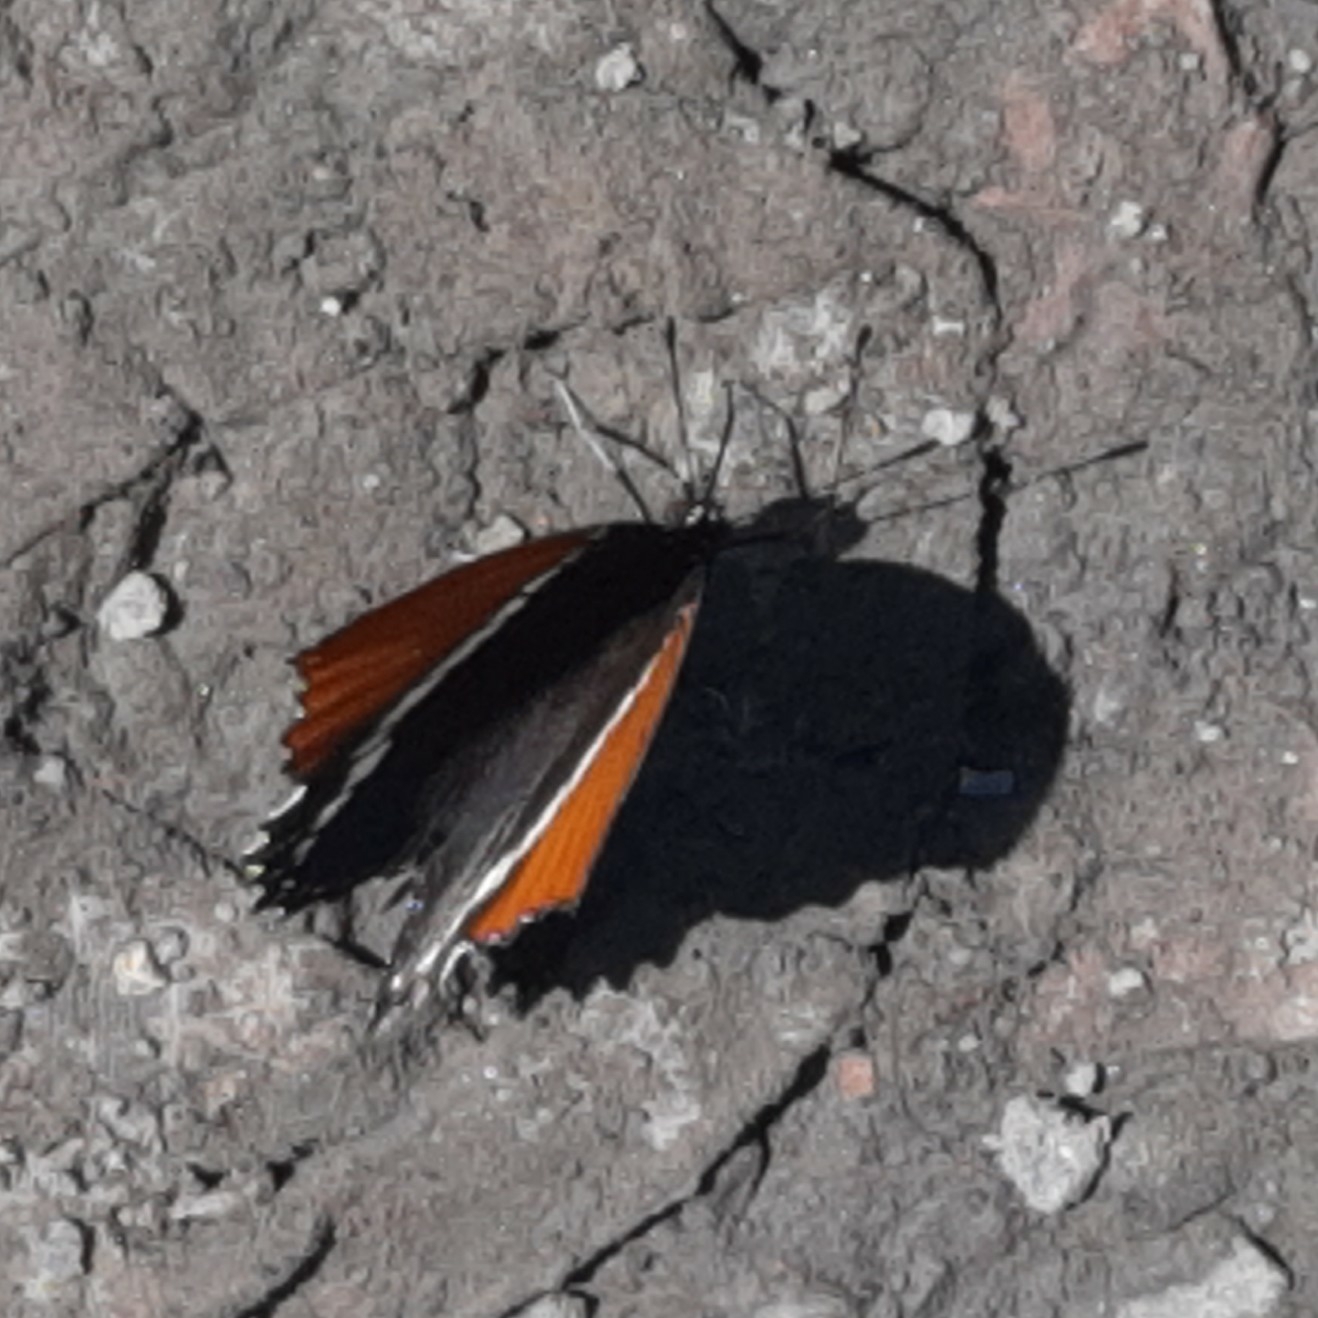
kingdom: Animalia
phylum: Arthropoda
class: Insecta
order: Lepidoptera
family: Nymphalidae
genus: Siproeta
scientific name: Siproeta epaphus
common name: Rusty-tipped page
